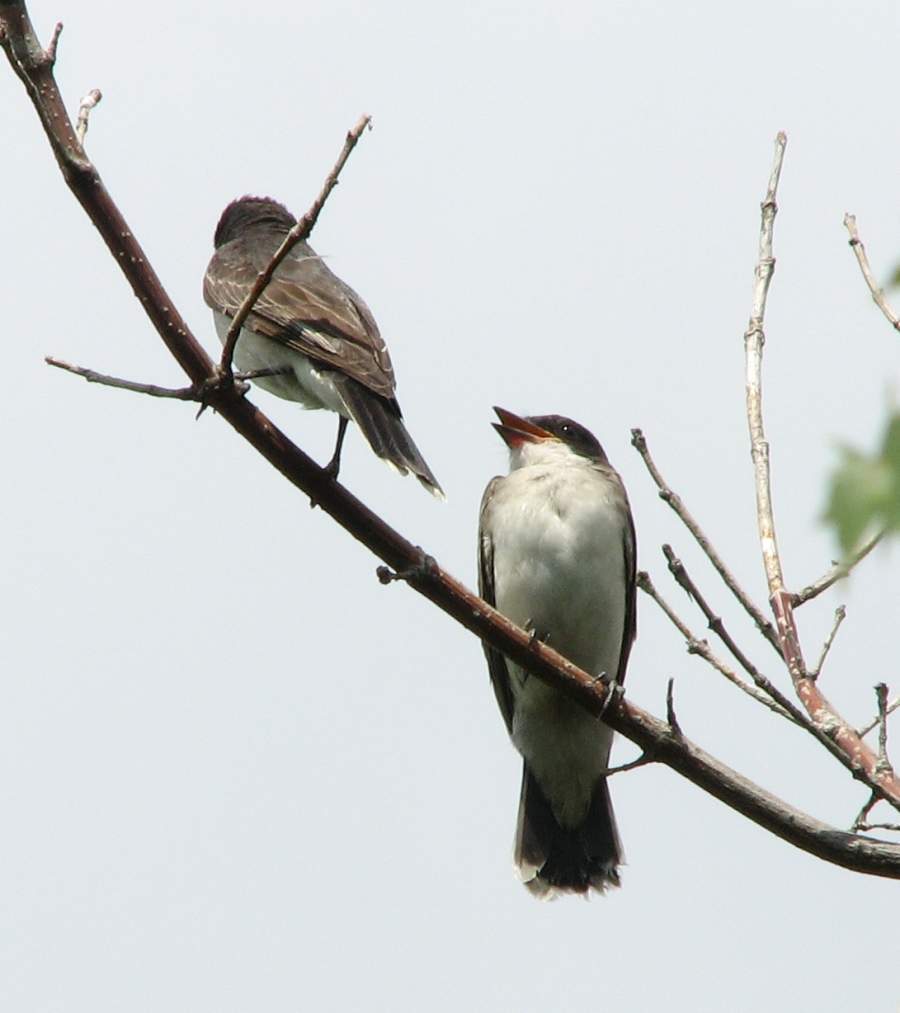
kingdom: Animalia
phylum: Chordata
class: Aves
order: Passeriformes
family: Tyrannidae
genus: Tyrannus
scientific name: Tyrannus tyrannus
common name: Eastern kingbird
